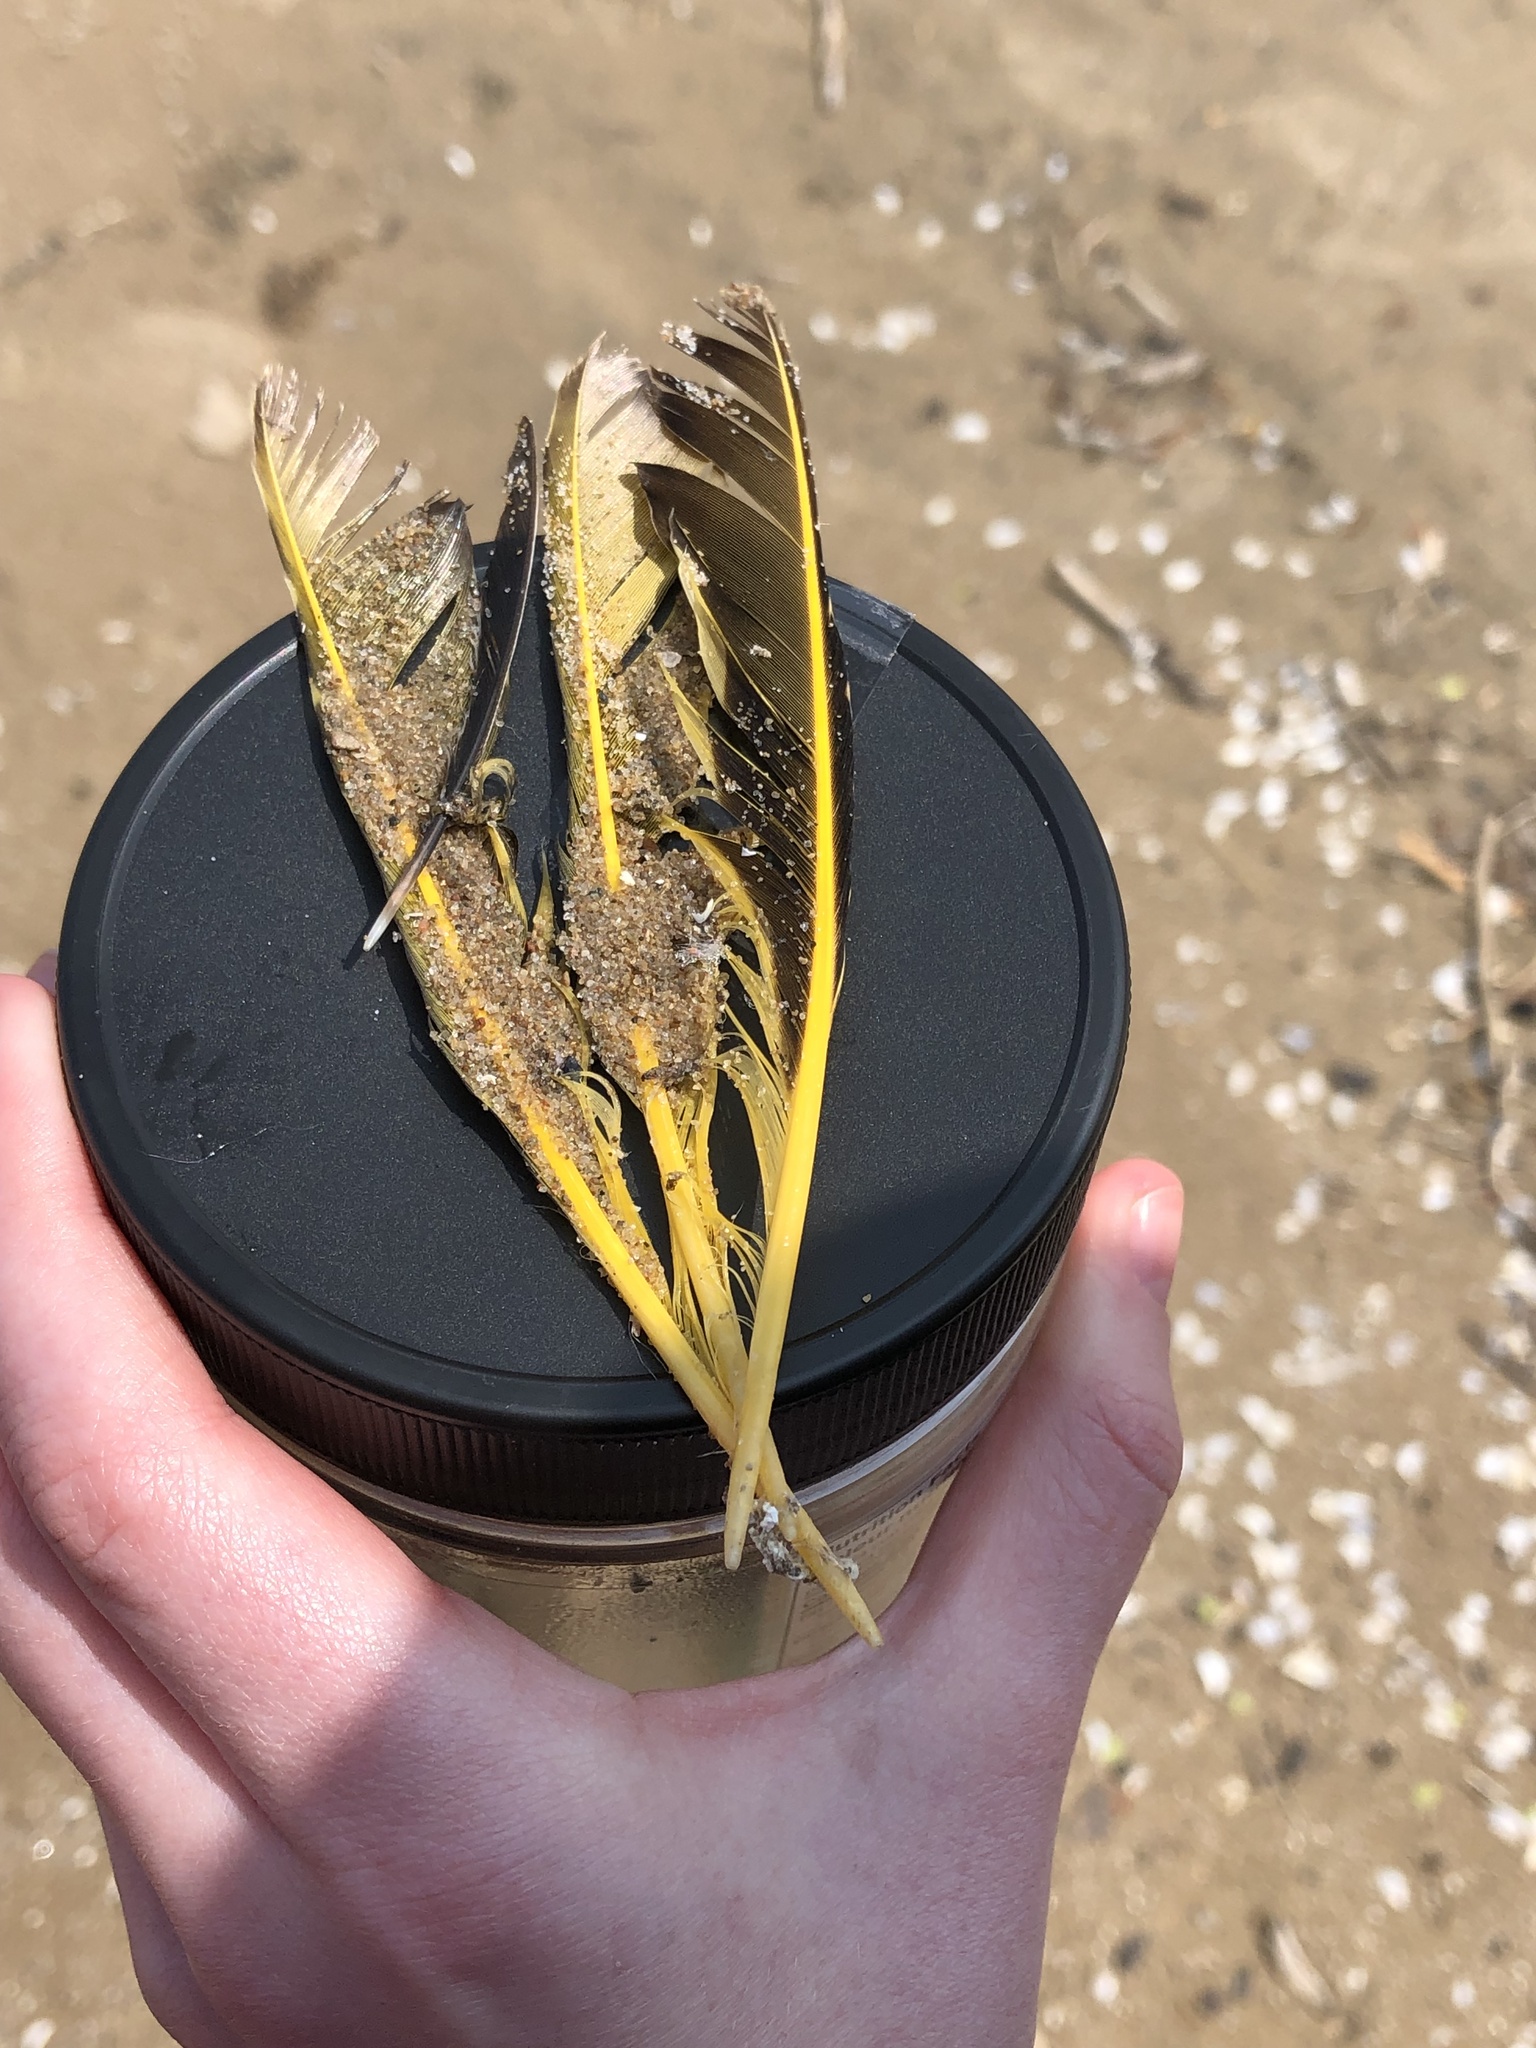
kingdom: Animalia
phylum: Chordata
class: Aves
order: Piciformes
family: Picidae
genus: Colaptes
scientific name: Colaptes auratus
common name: Northern flicker
